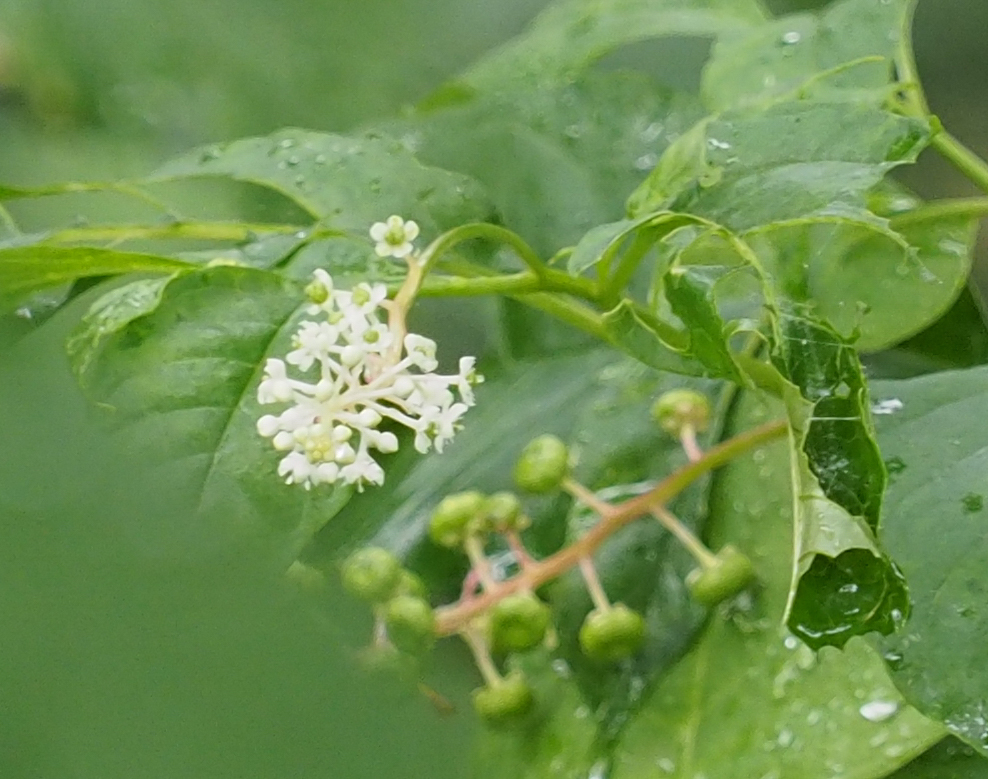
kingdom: Plantae
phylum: Tracheophyta
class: Magnoliopsida
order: Caryophyllales
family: Phytolaccaceae
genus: Phytolacca
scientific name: Phytolacca americana
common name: American pokeweed
